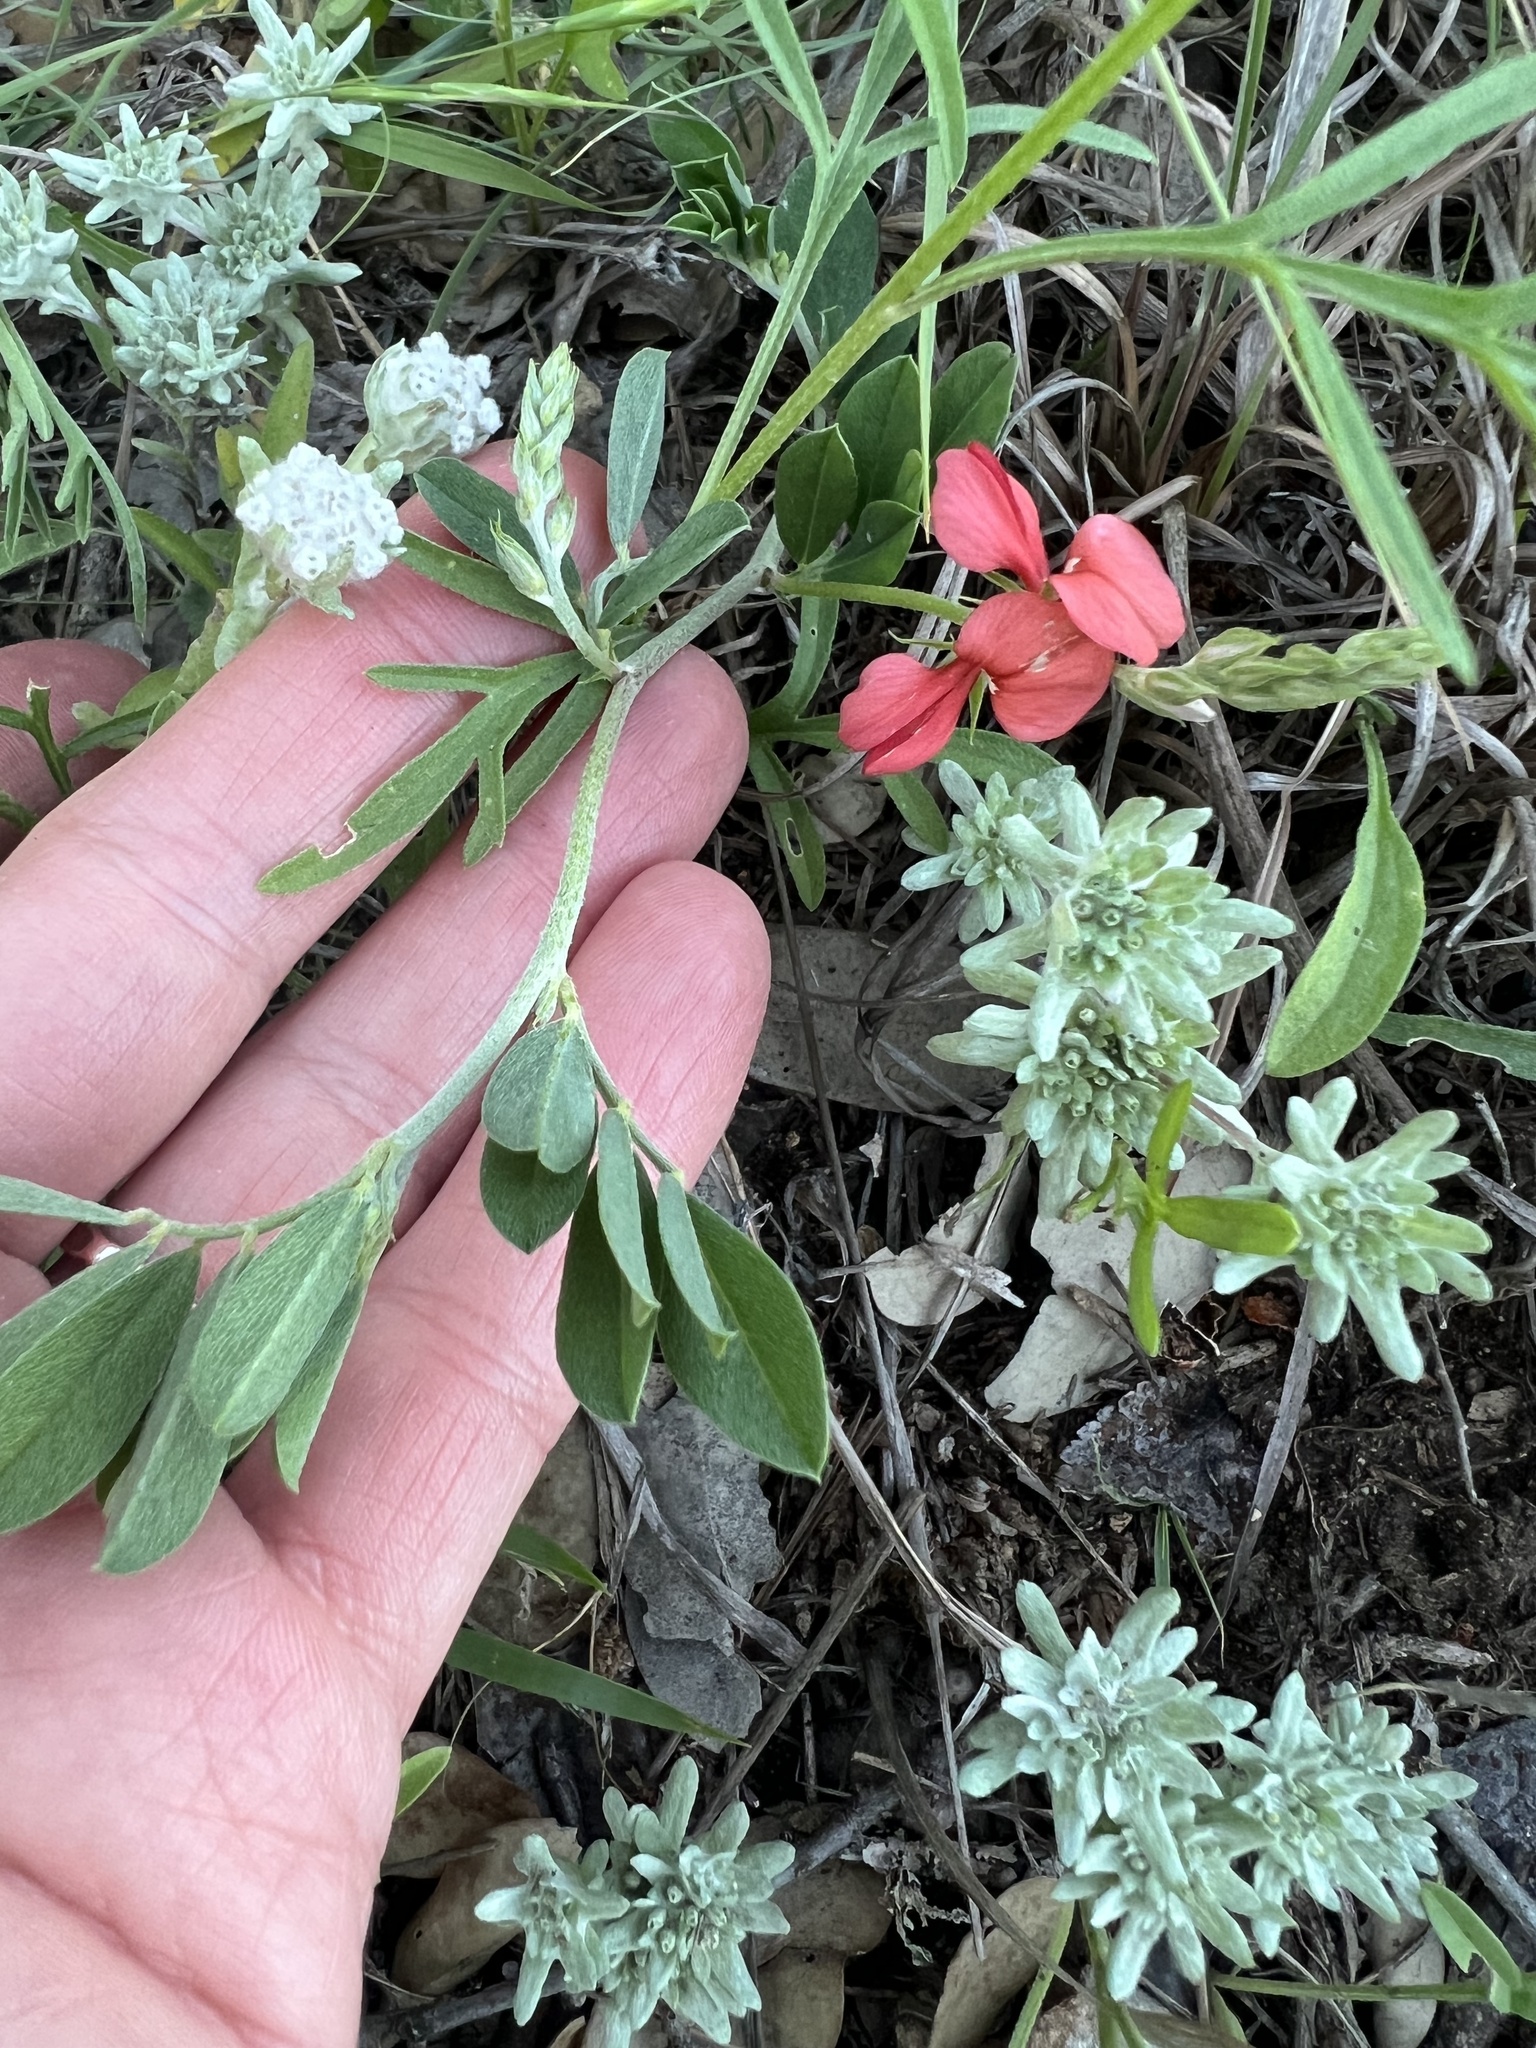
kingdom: Plantae
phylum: Tracheophyta
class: Magnoliopsida
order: Fabales
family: Fabaceae
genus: Indigofera
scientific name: Indigofera miniata
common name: Coast indigo
